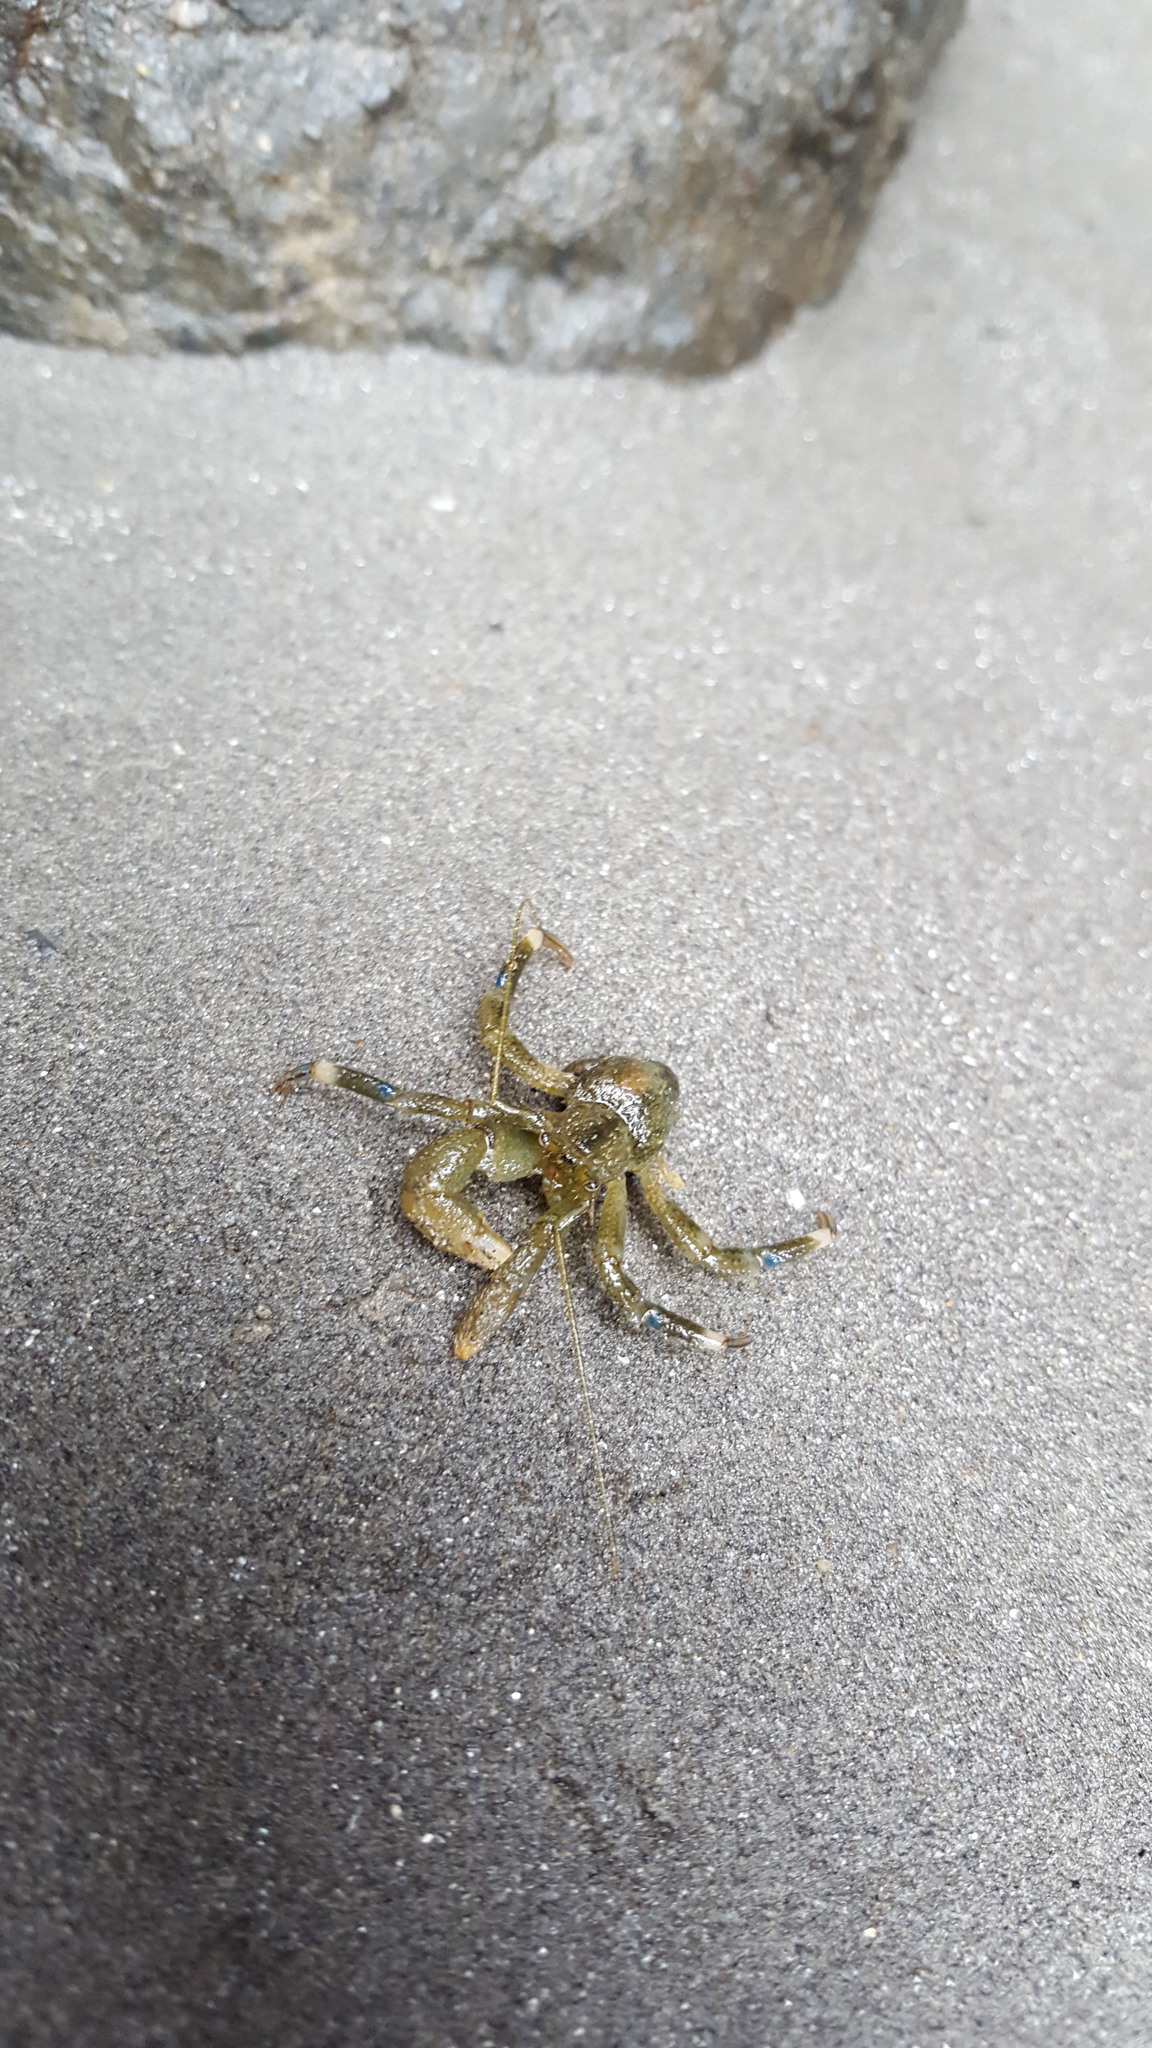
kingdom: Animalia
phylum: Arthropoda
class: Malacostraca
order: Decapoda
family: Paguridae
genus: Pagurus
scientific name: Pagurus hirsutiusculus
